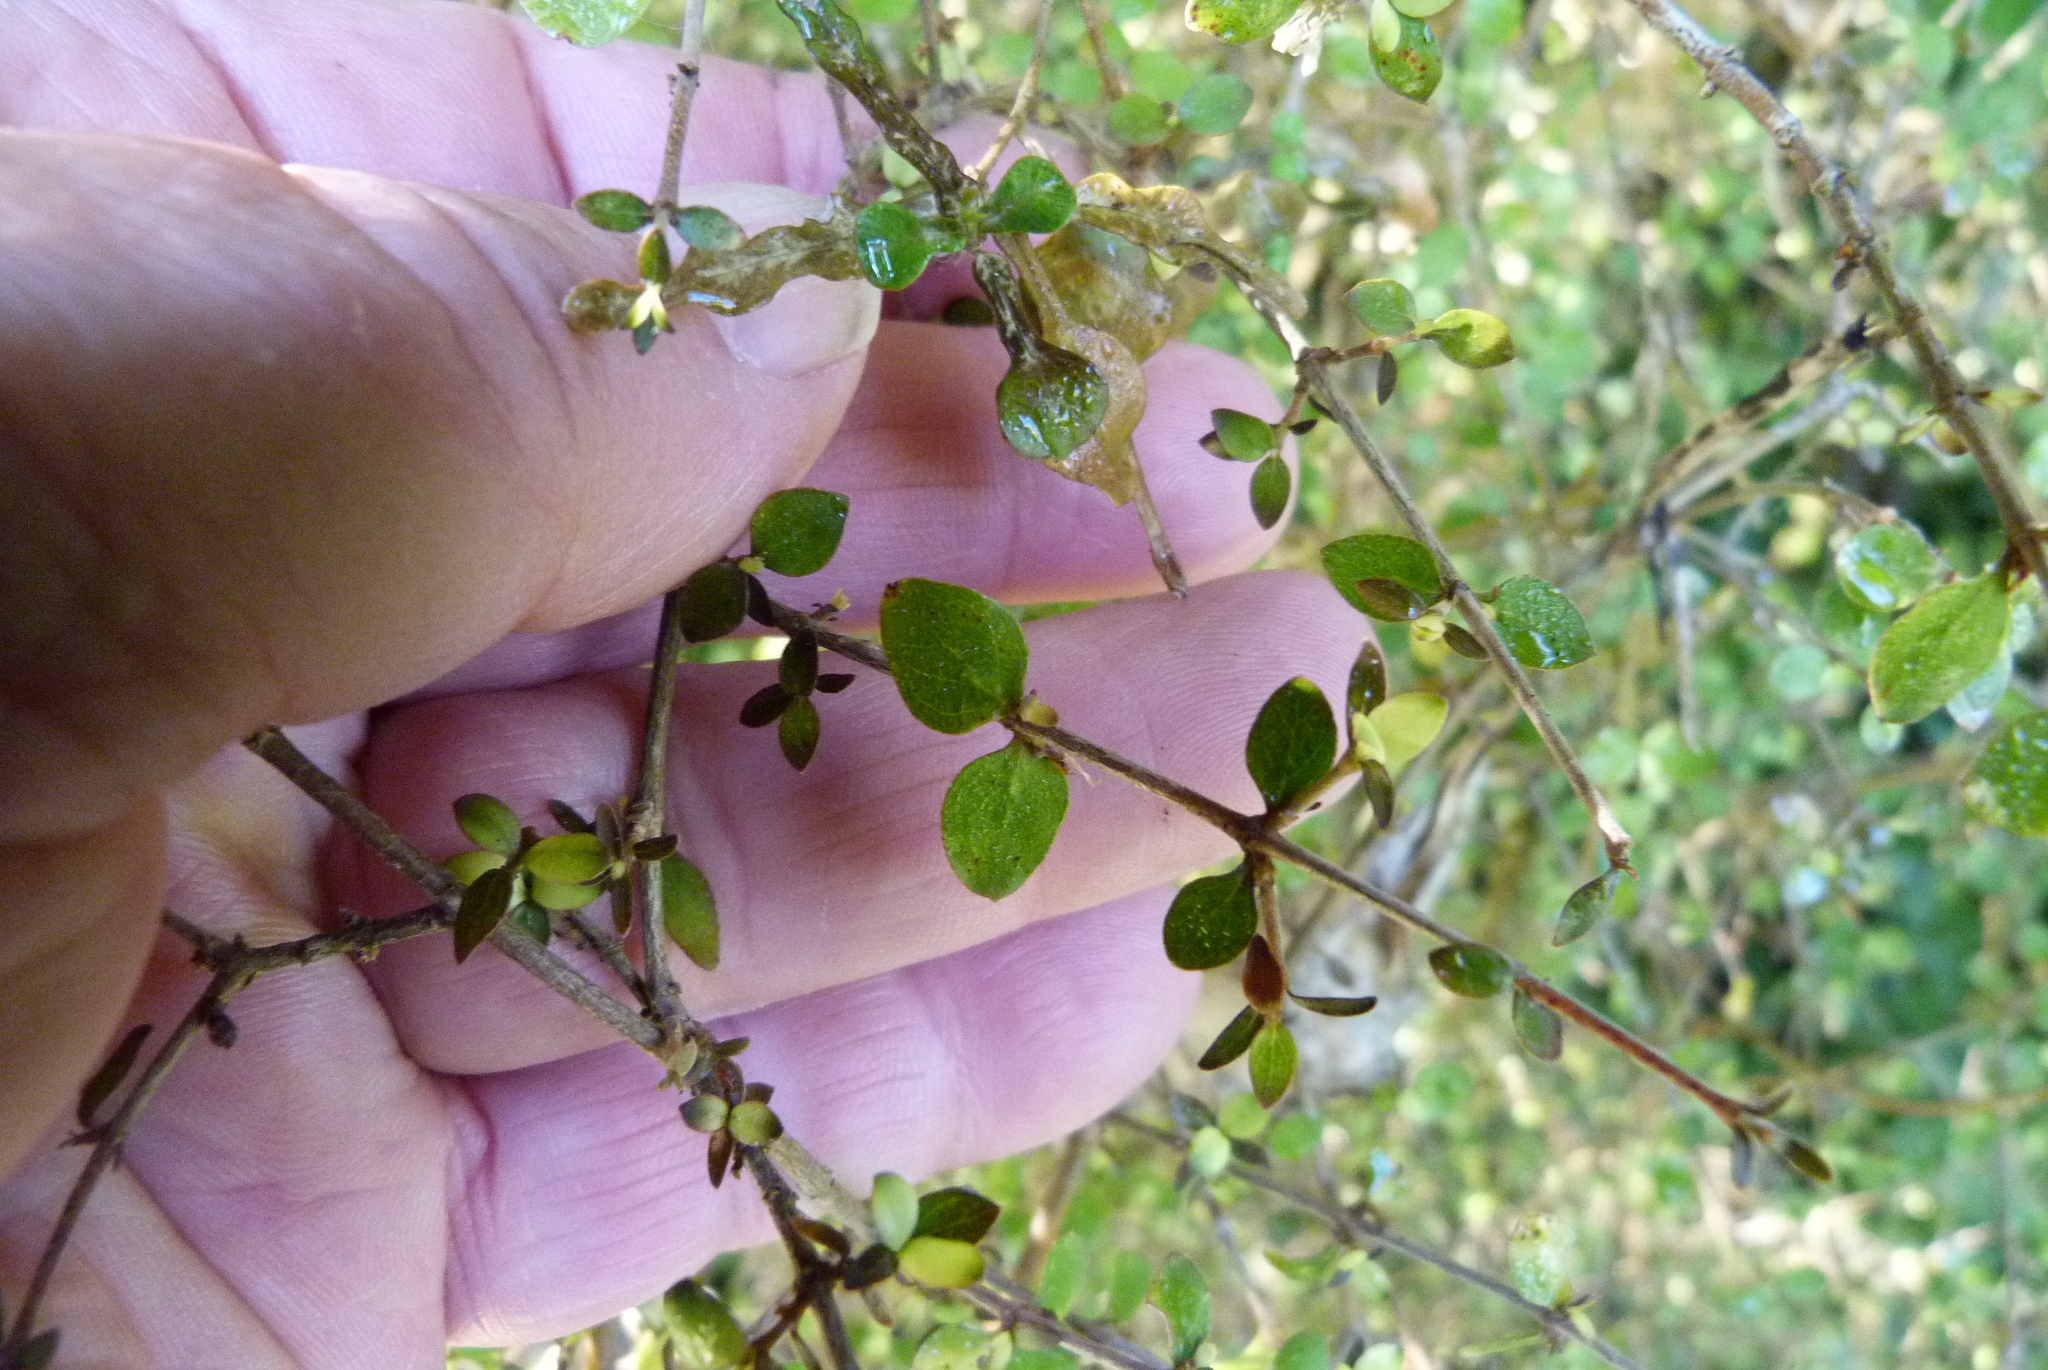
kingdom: Plantae
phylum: Tracheophyta
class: Magnoliopsida
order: Gentianales
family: Rubiaceae
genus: Coprosma
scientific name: Coprosma rhamnoides
